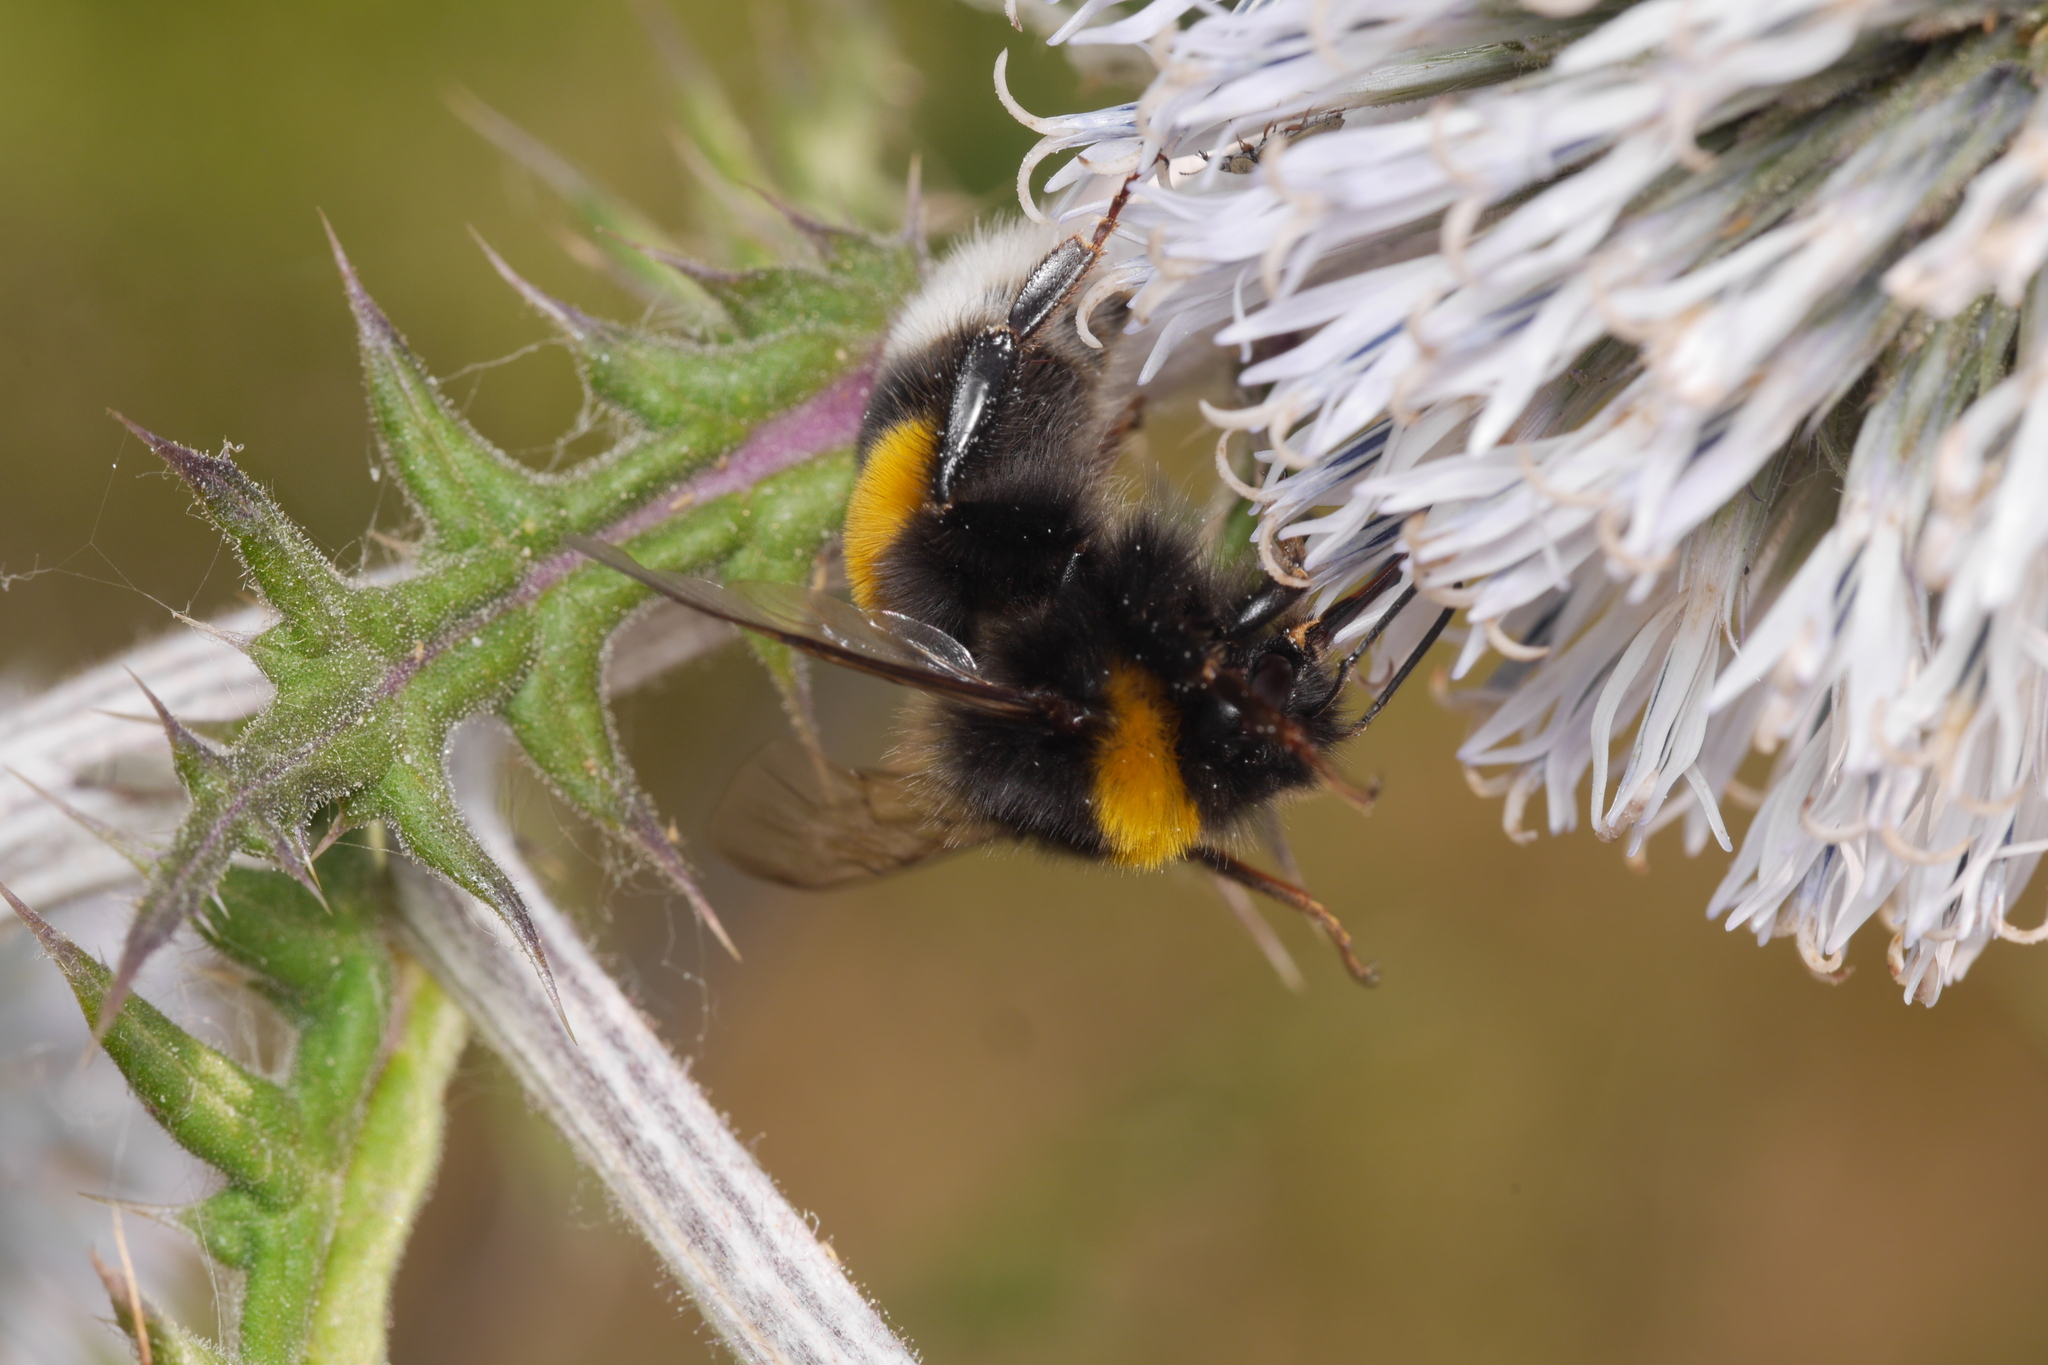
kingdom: Animalia
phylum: Arthropoda
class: Insecta
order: Hymenoptera
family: Apidae
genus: Bombus
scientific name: Bombus terrestris
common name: Buff-tailed bumblebee
